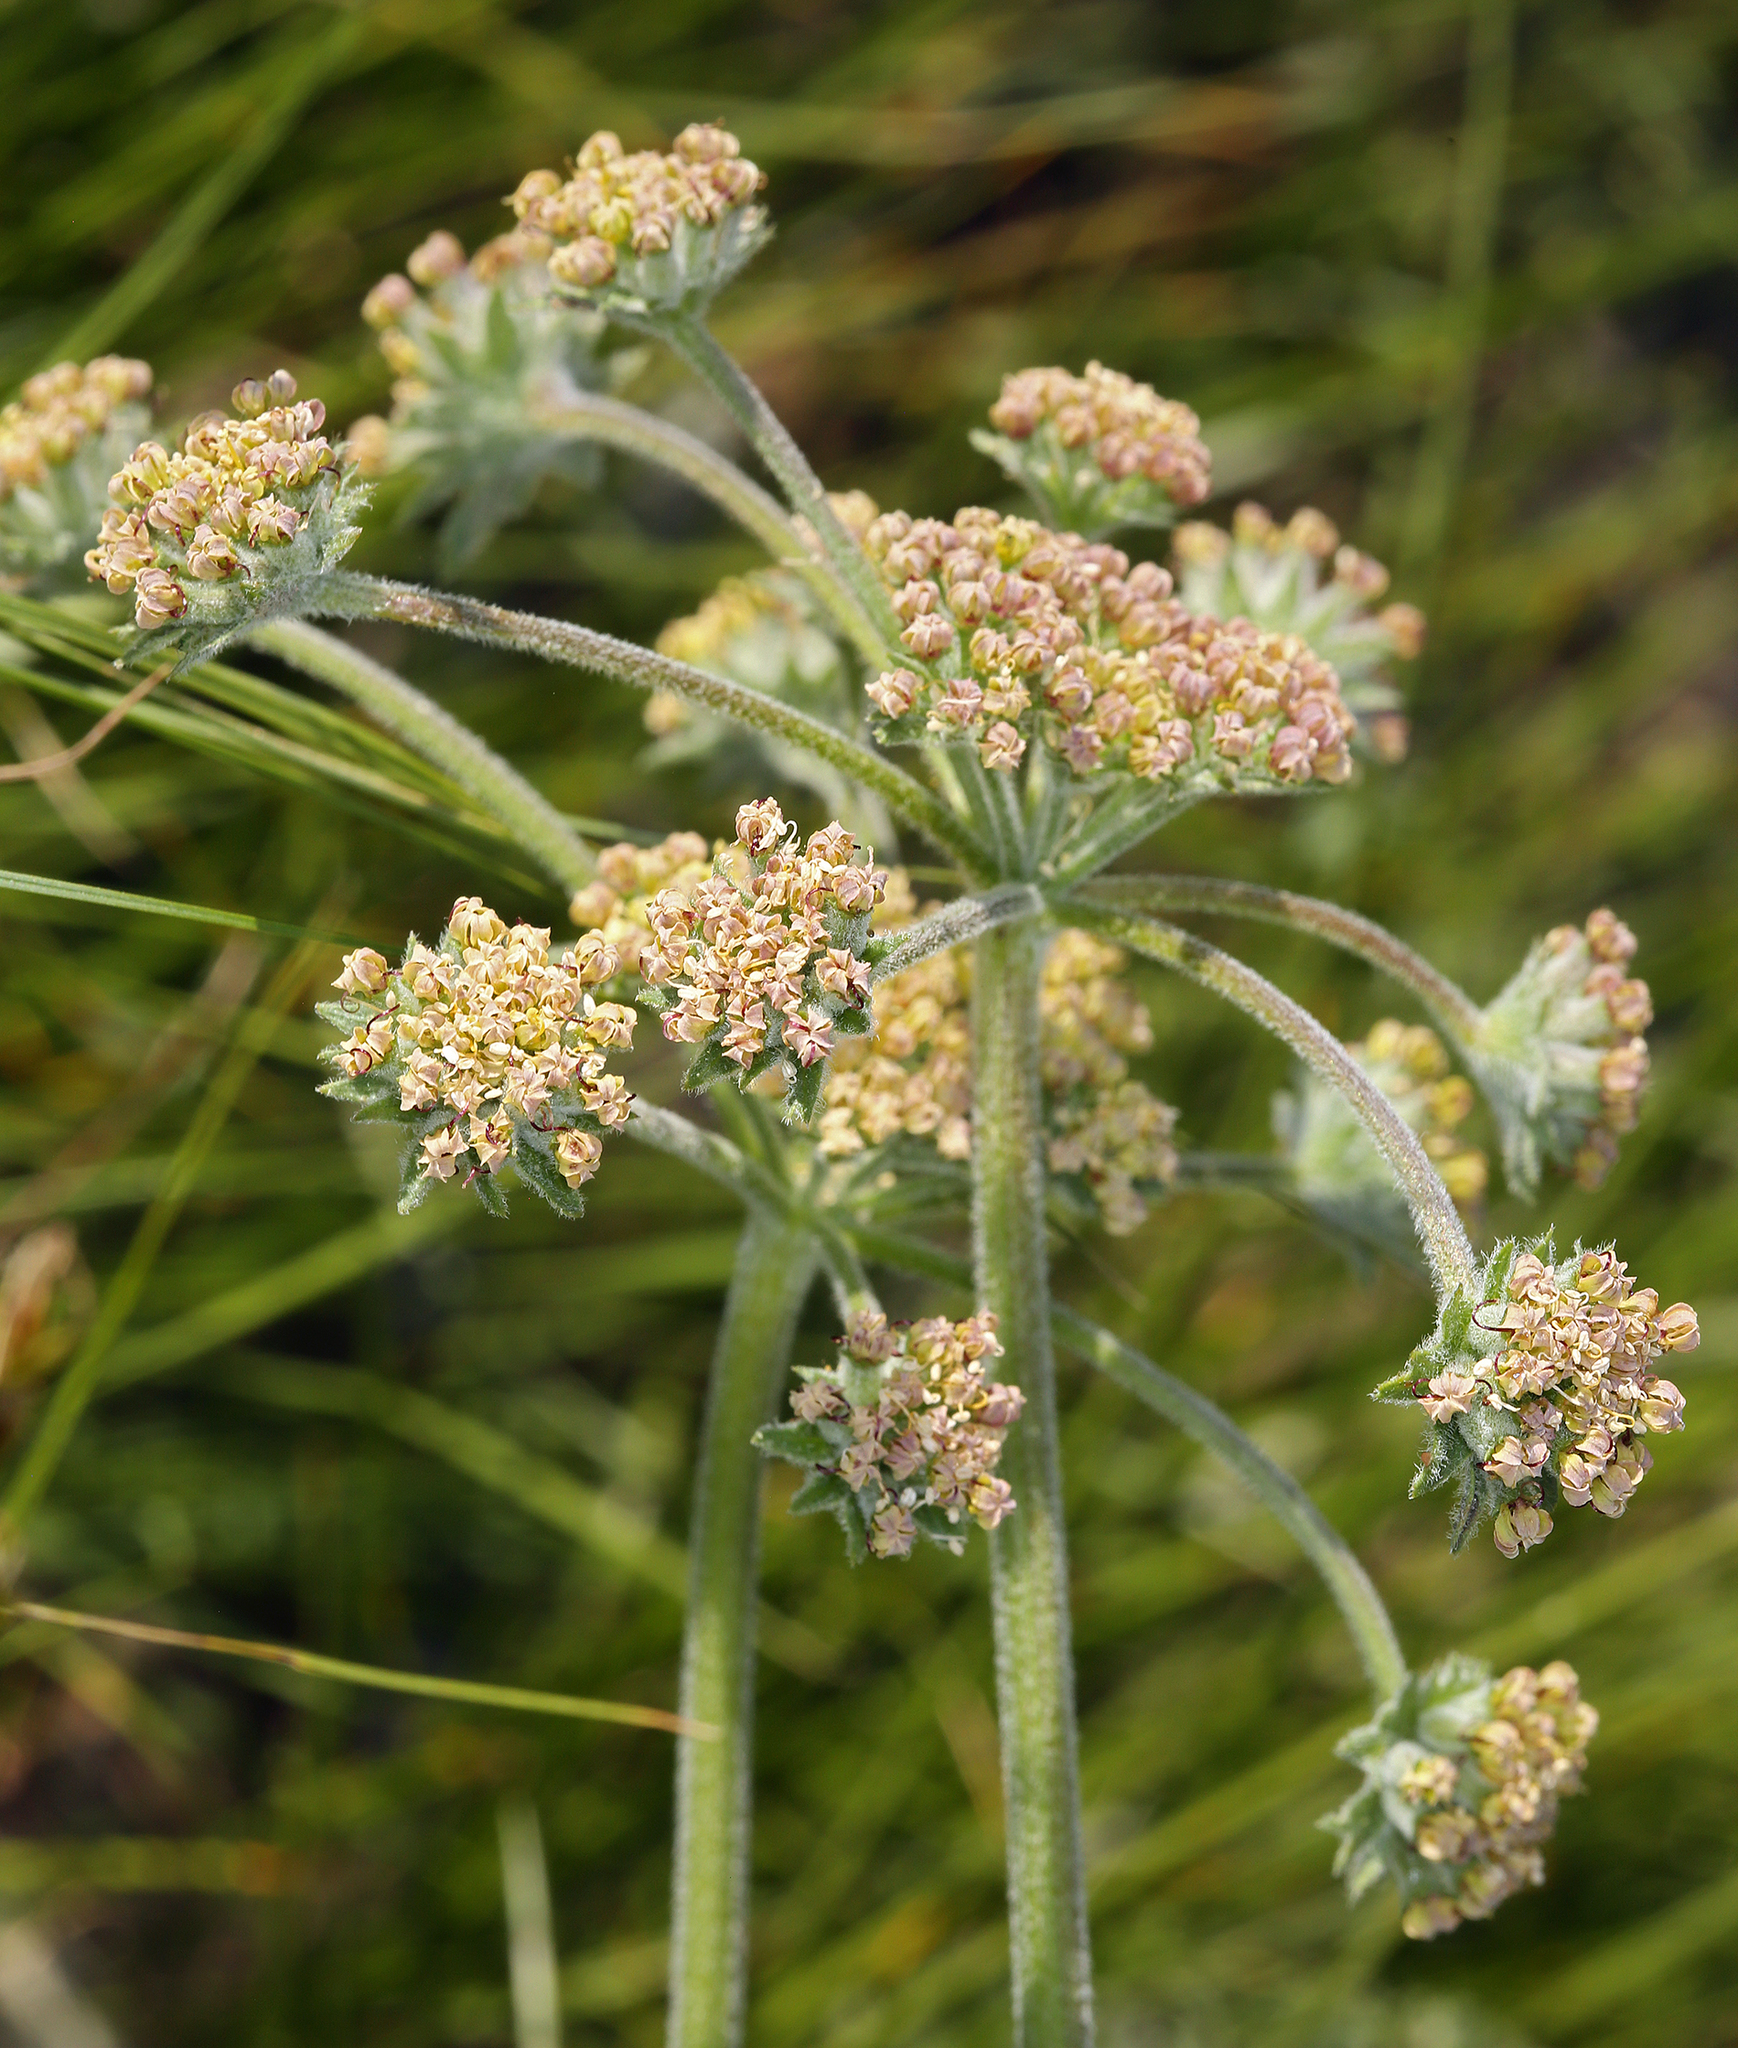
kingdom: Plantae
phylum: Tracheophyta
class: Magnoliopsida
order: Apiales
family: Apiaceae
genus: Lomatium
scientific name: Lomatium macrocarpum
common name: Big-seed biscuitroot
